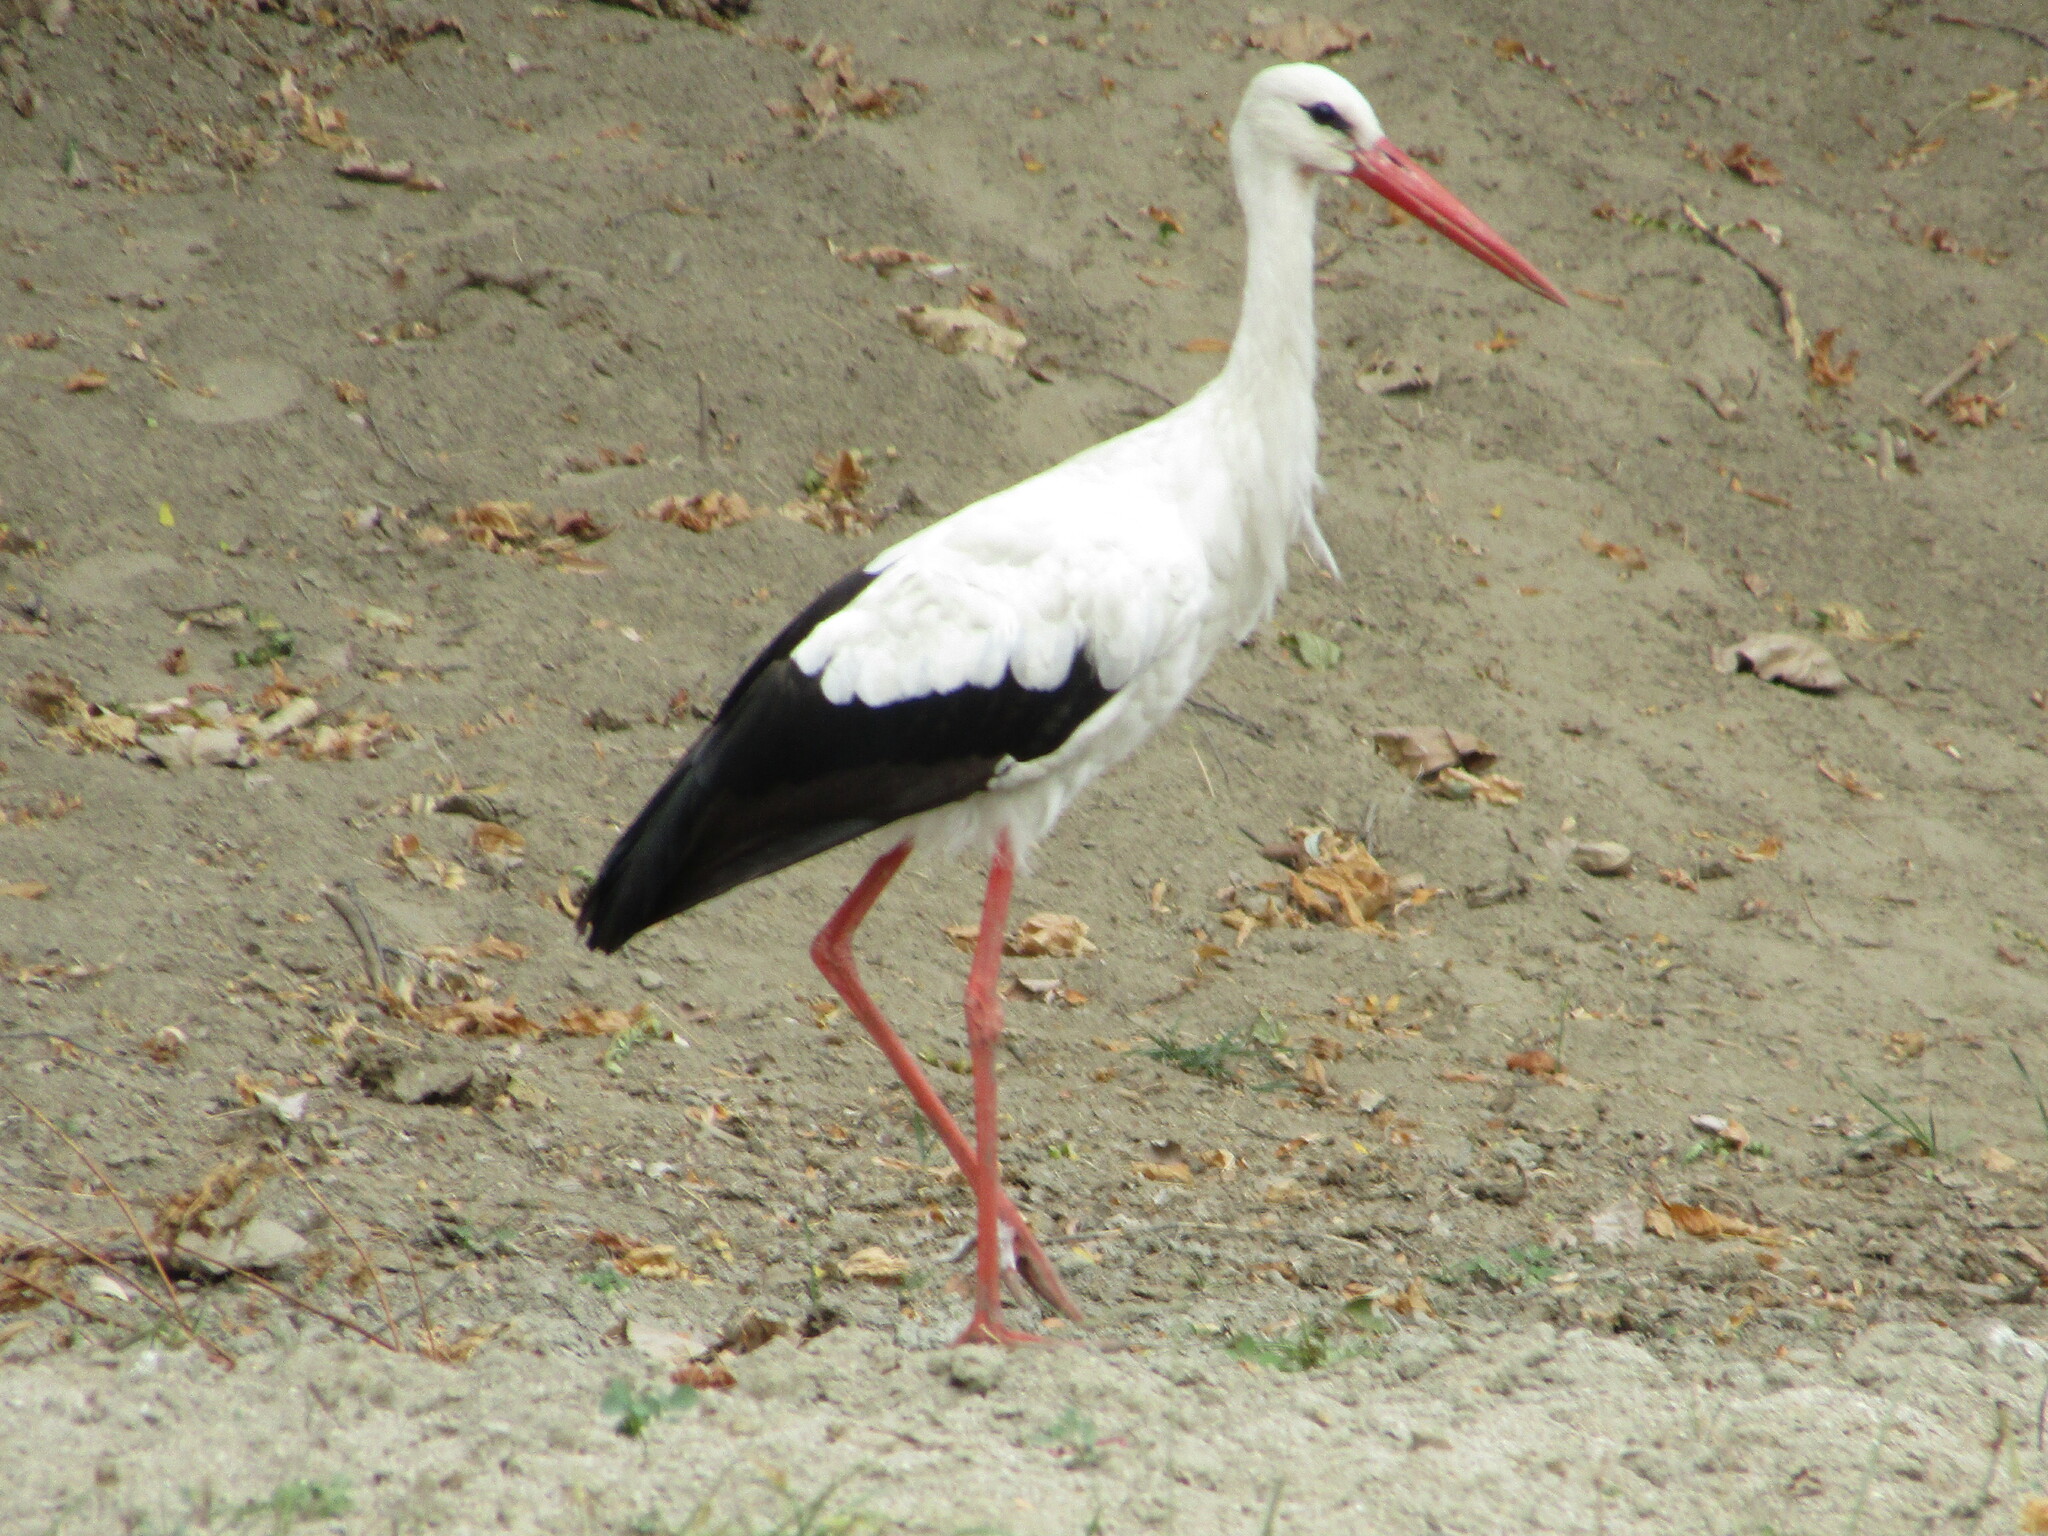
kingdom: Animalia
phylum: Chordata
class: Aves
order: Ciconiiformes
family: Ciconiidae
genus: Ciconia
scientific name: Ciconia ciconia
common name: White stork
